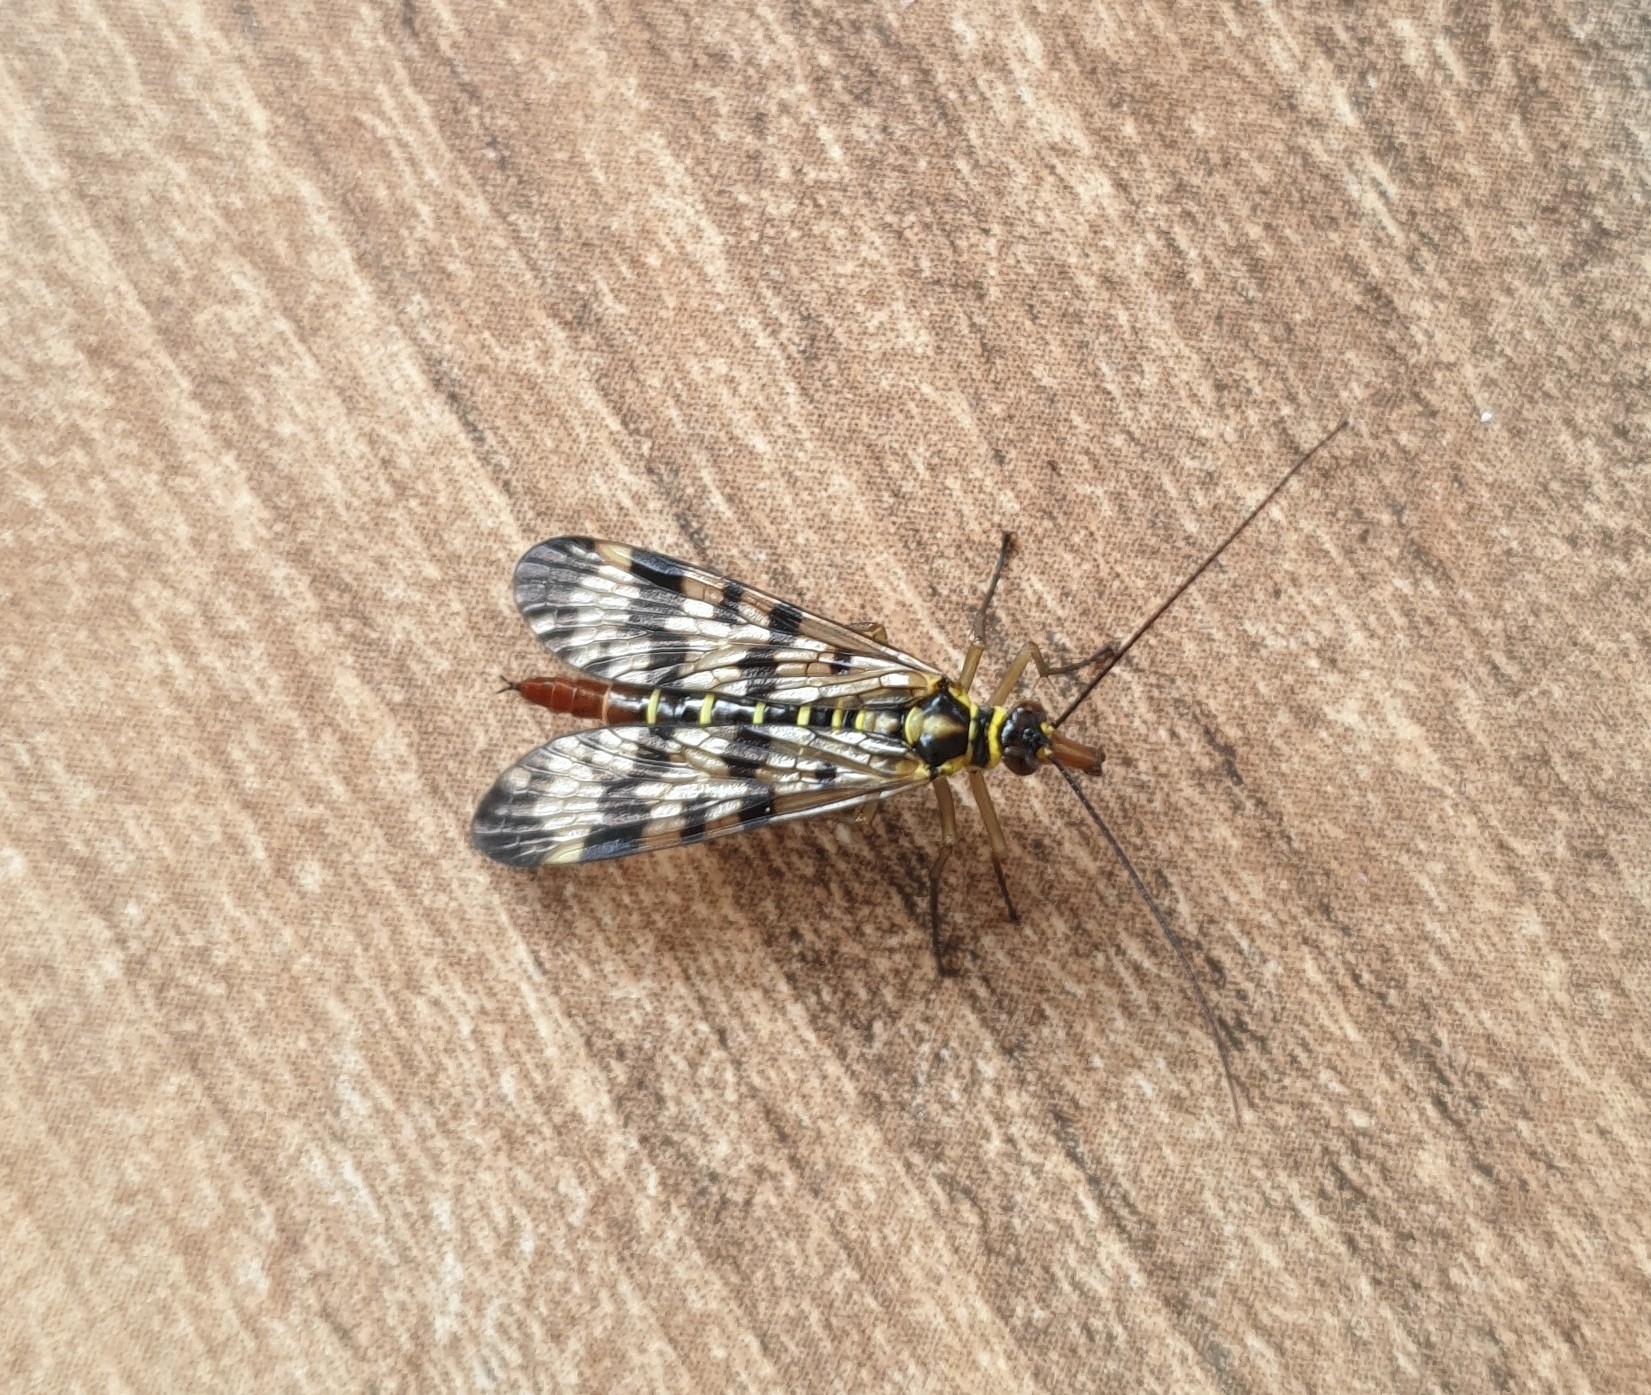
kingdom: Animalia
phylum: Arthropoda
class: Insecta
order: Mecoptera
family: Panorpidae
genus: Panorpa
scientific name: Panorpa communis
